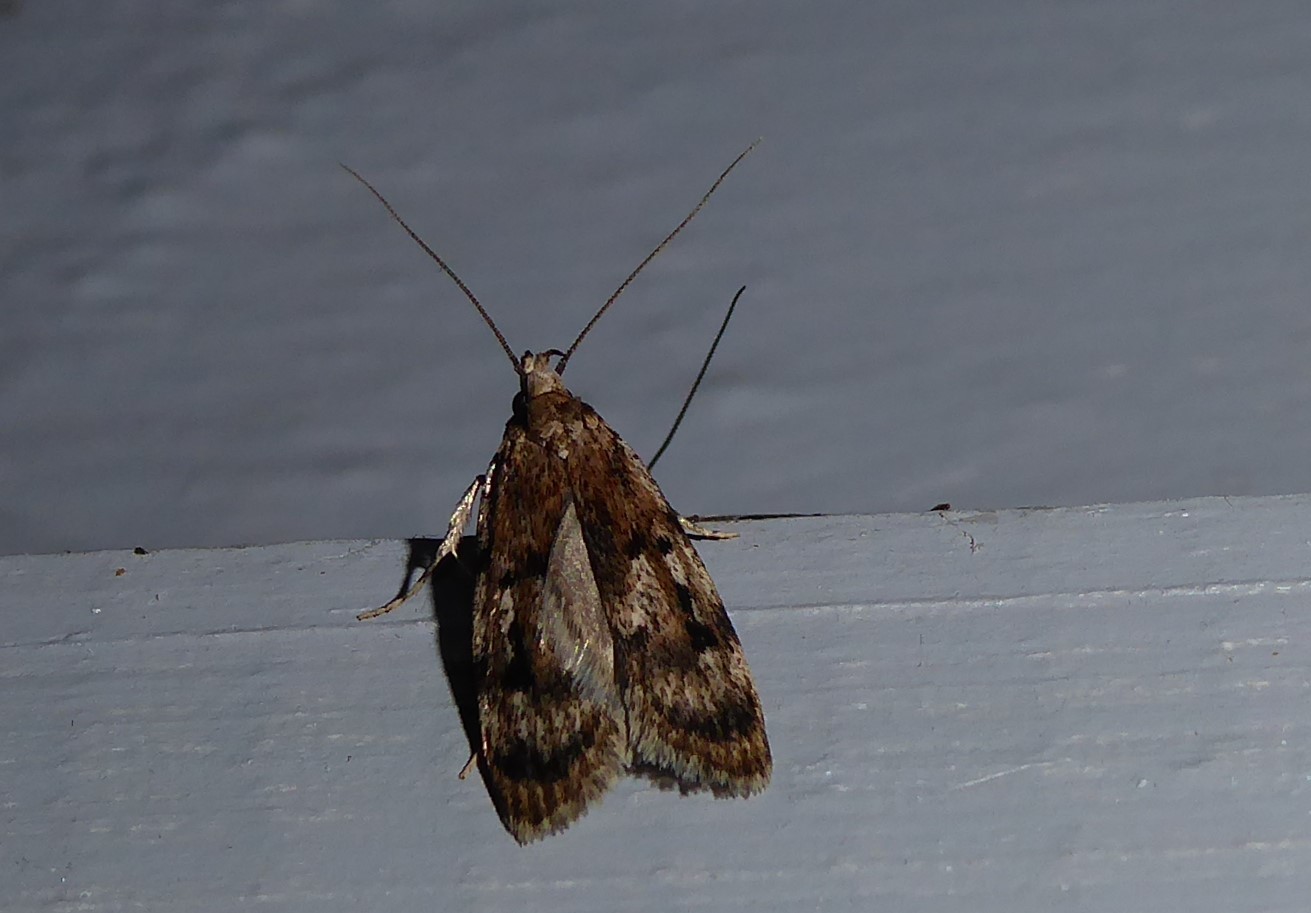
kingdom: Animalia
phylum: Arthropoda
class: Insecta
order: Lepidoptera
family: Oecophoridae
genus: Barea
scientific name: Barea exarcha
